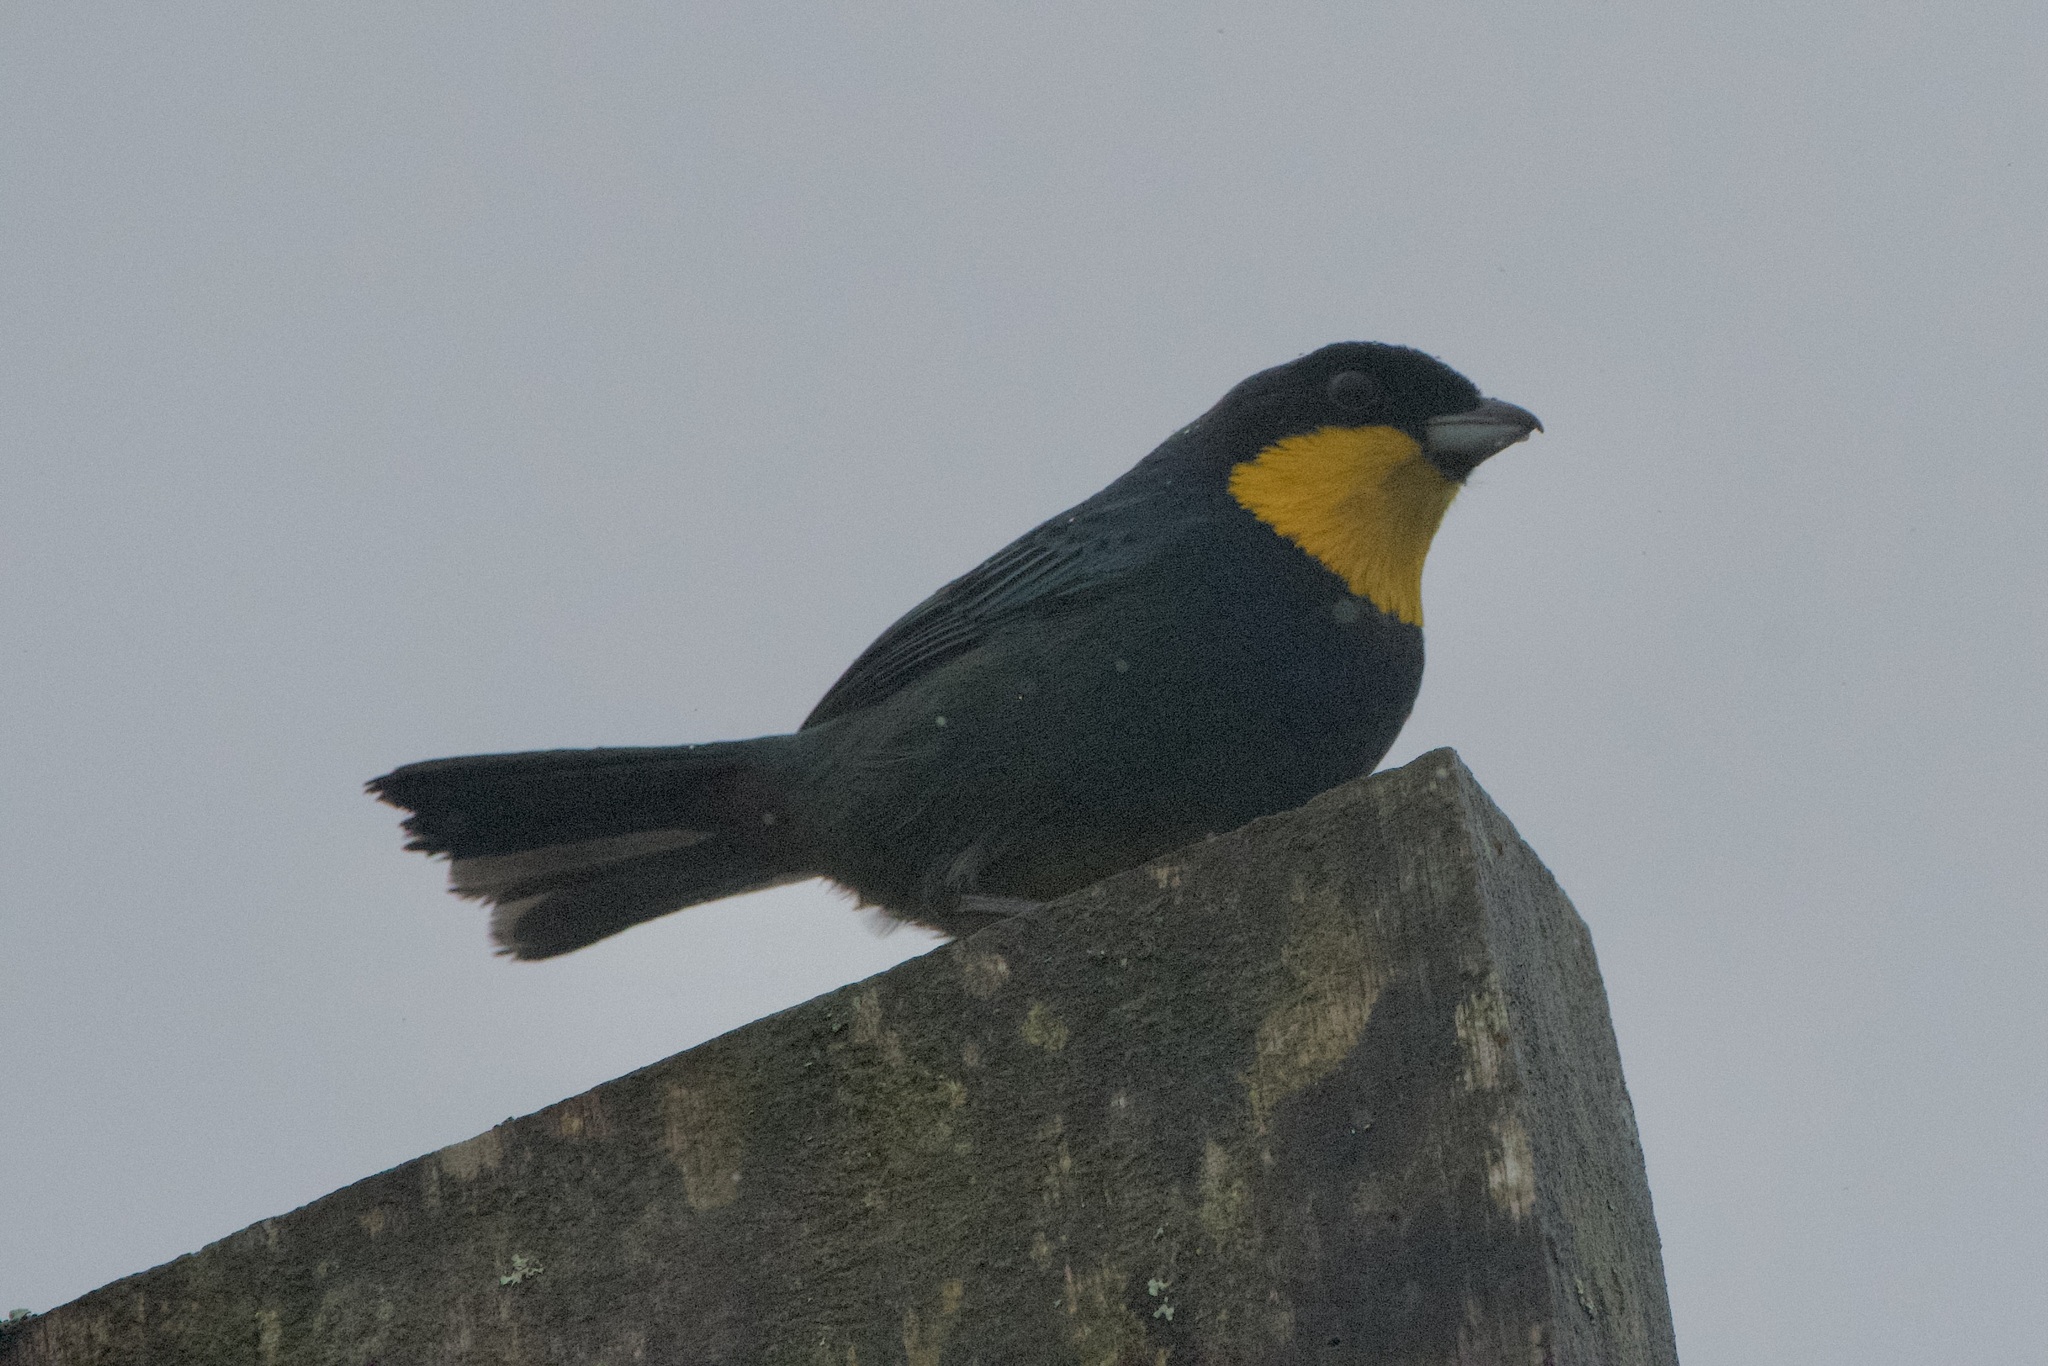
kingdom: Animalia
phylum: Chordata
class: Aves
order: Passeriformes
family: Thraupidae
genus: Iridosornis
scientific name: Iridosornis porphyrocephalus
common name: Purplish-mantled tanager
